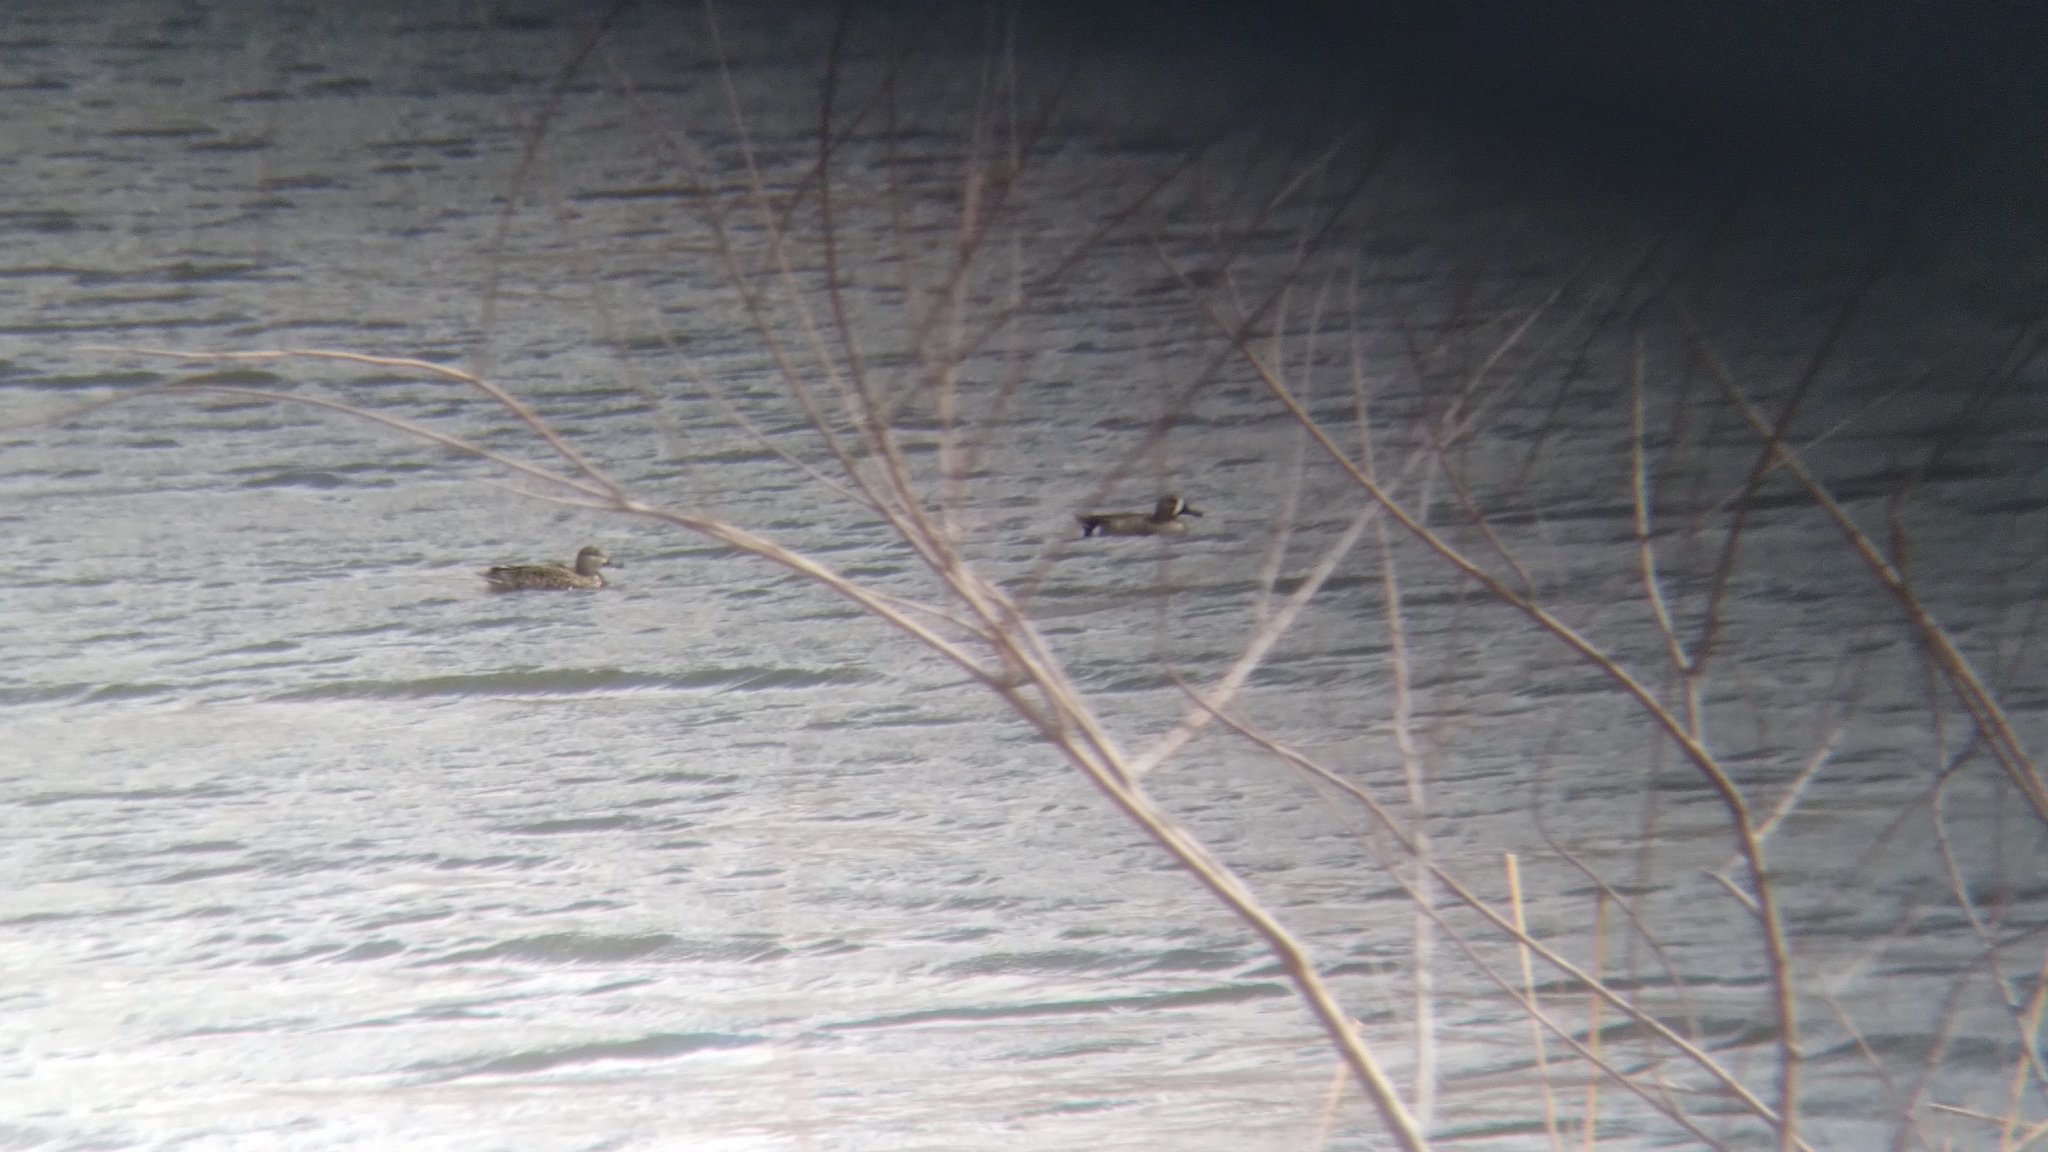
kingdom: Animalia
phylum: Chordata
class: Aves
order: Anseriformes
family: Anatidae
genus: Spatula
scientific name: Spatula discors
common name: Blue-winged teal
